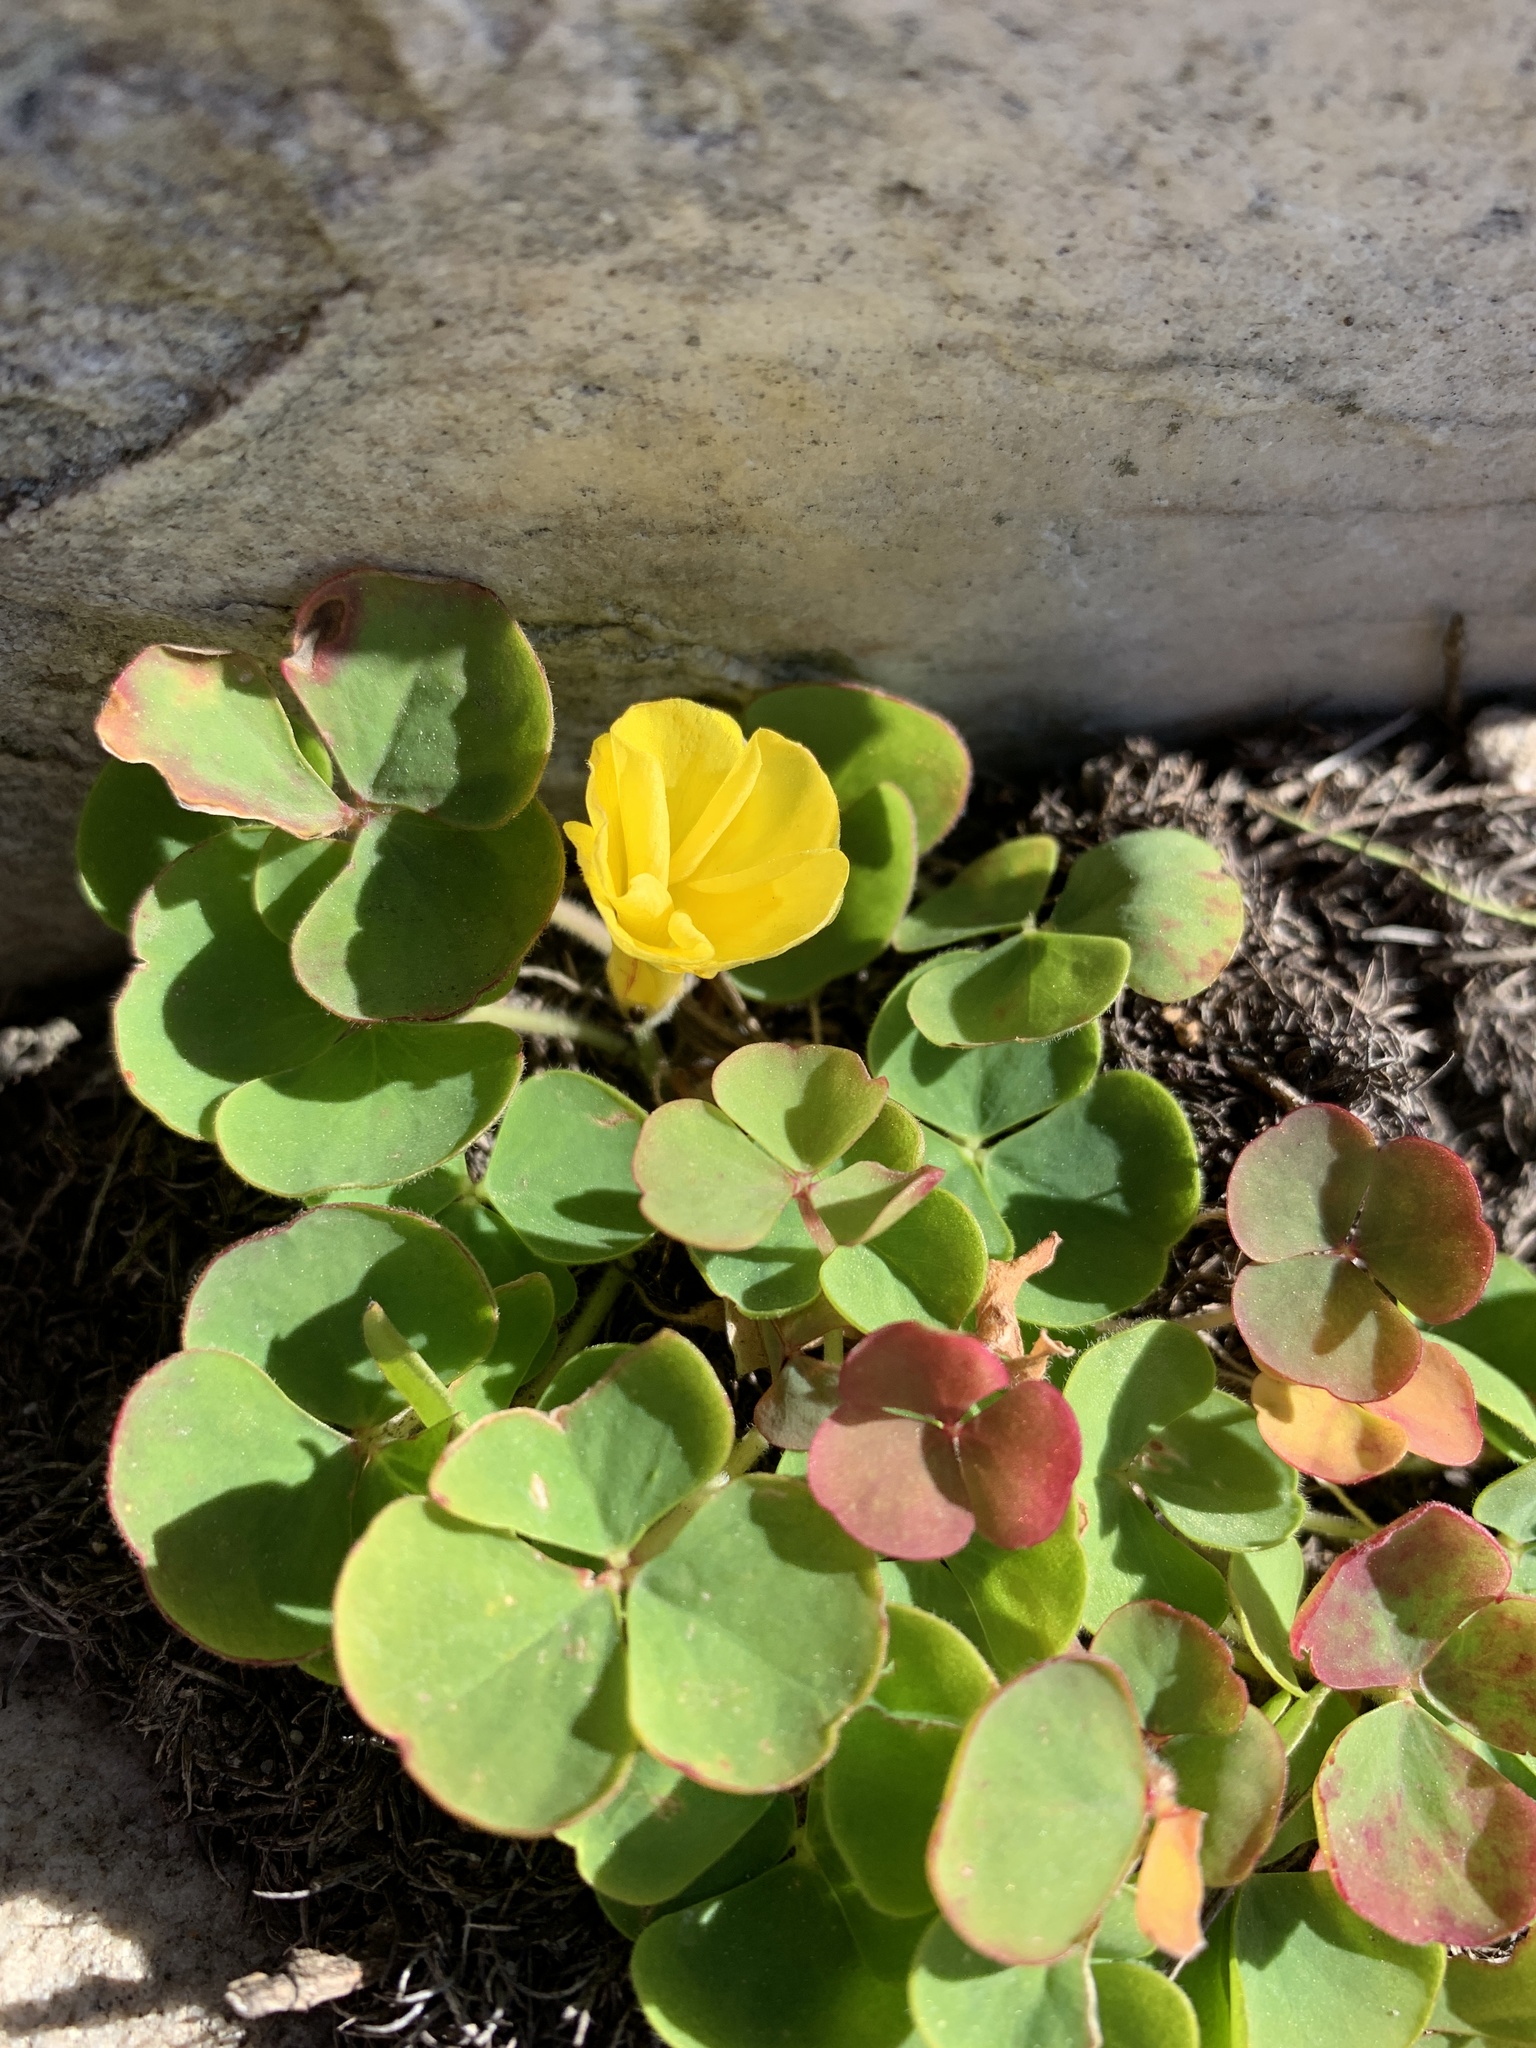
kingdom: Plantae
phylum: Tracheophyta
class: Magnoliopsida
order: Oxalidales
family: Oxalidaceae
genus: Oxalis
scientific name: Oxalis luteola
